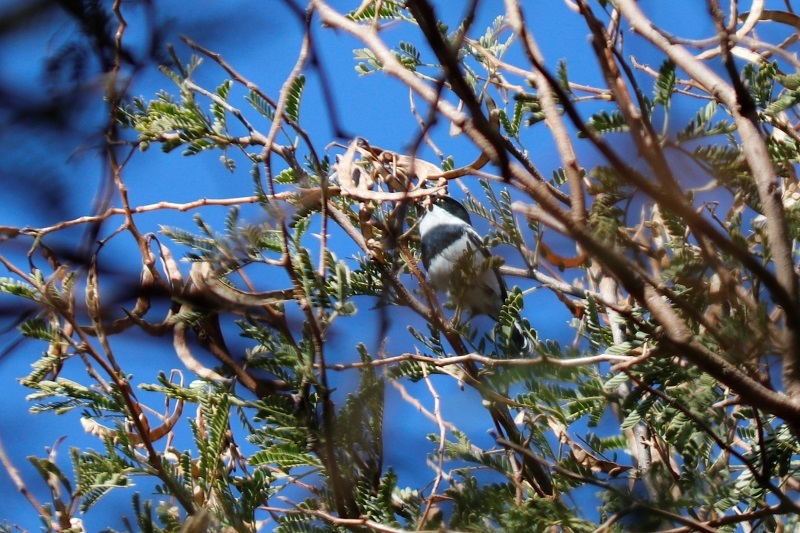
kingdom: Animalia
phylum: Chordata
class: Aves
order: Passeriformes
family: Platysteiridae
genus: Batis
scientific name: Batis pririt
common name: Pririt batis
